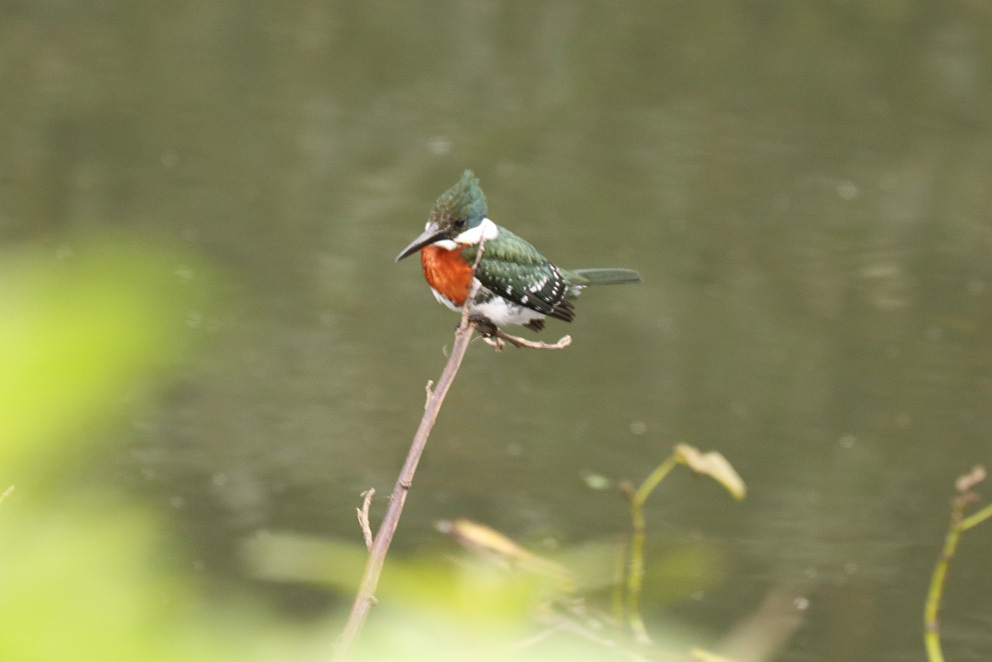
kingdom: Animalia
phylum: Chordata
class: Aves
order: Coraciiformes
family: Alcedinidae
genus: Chloroceryle
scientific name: Chloroceryle americana
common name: Green kingfisher
